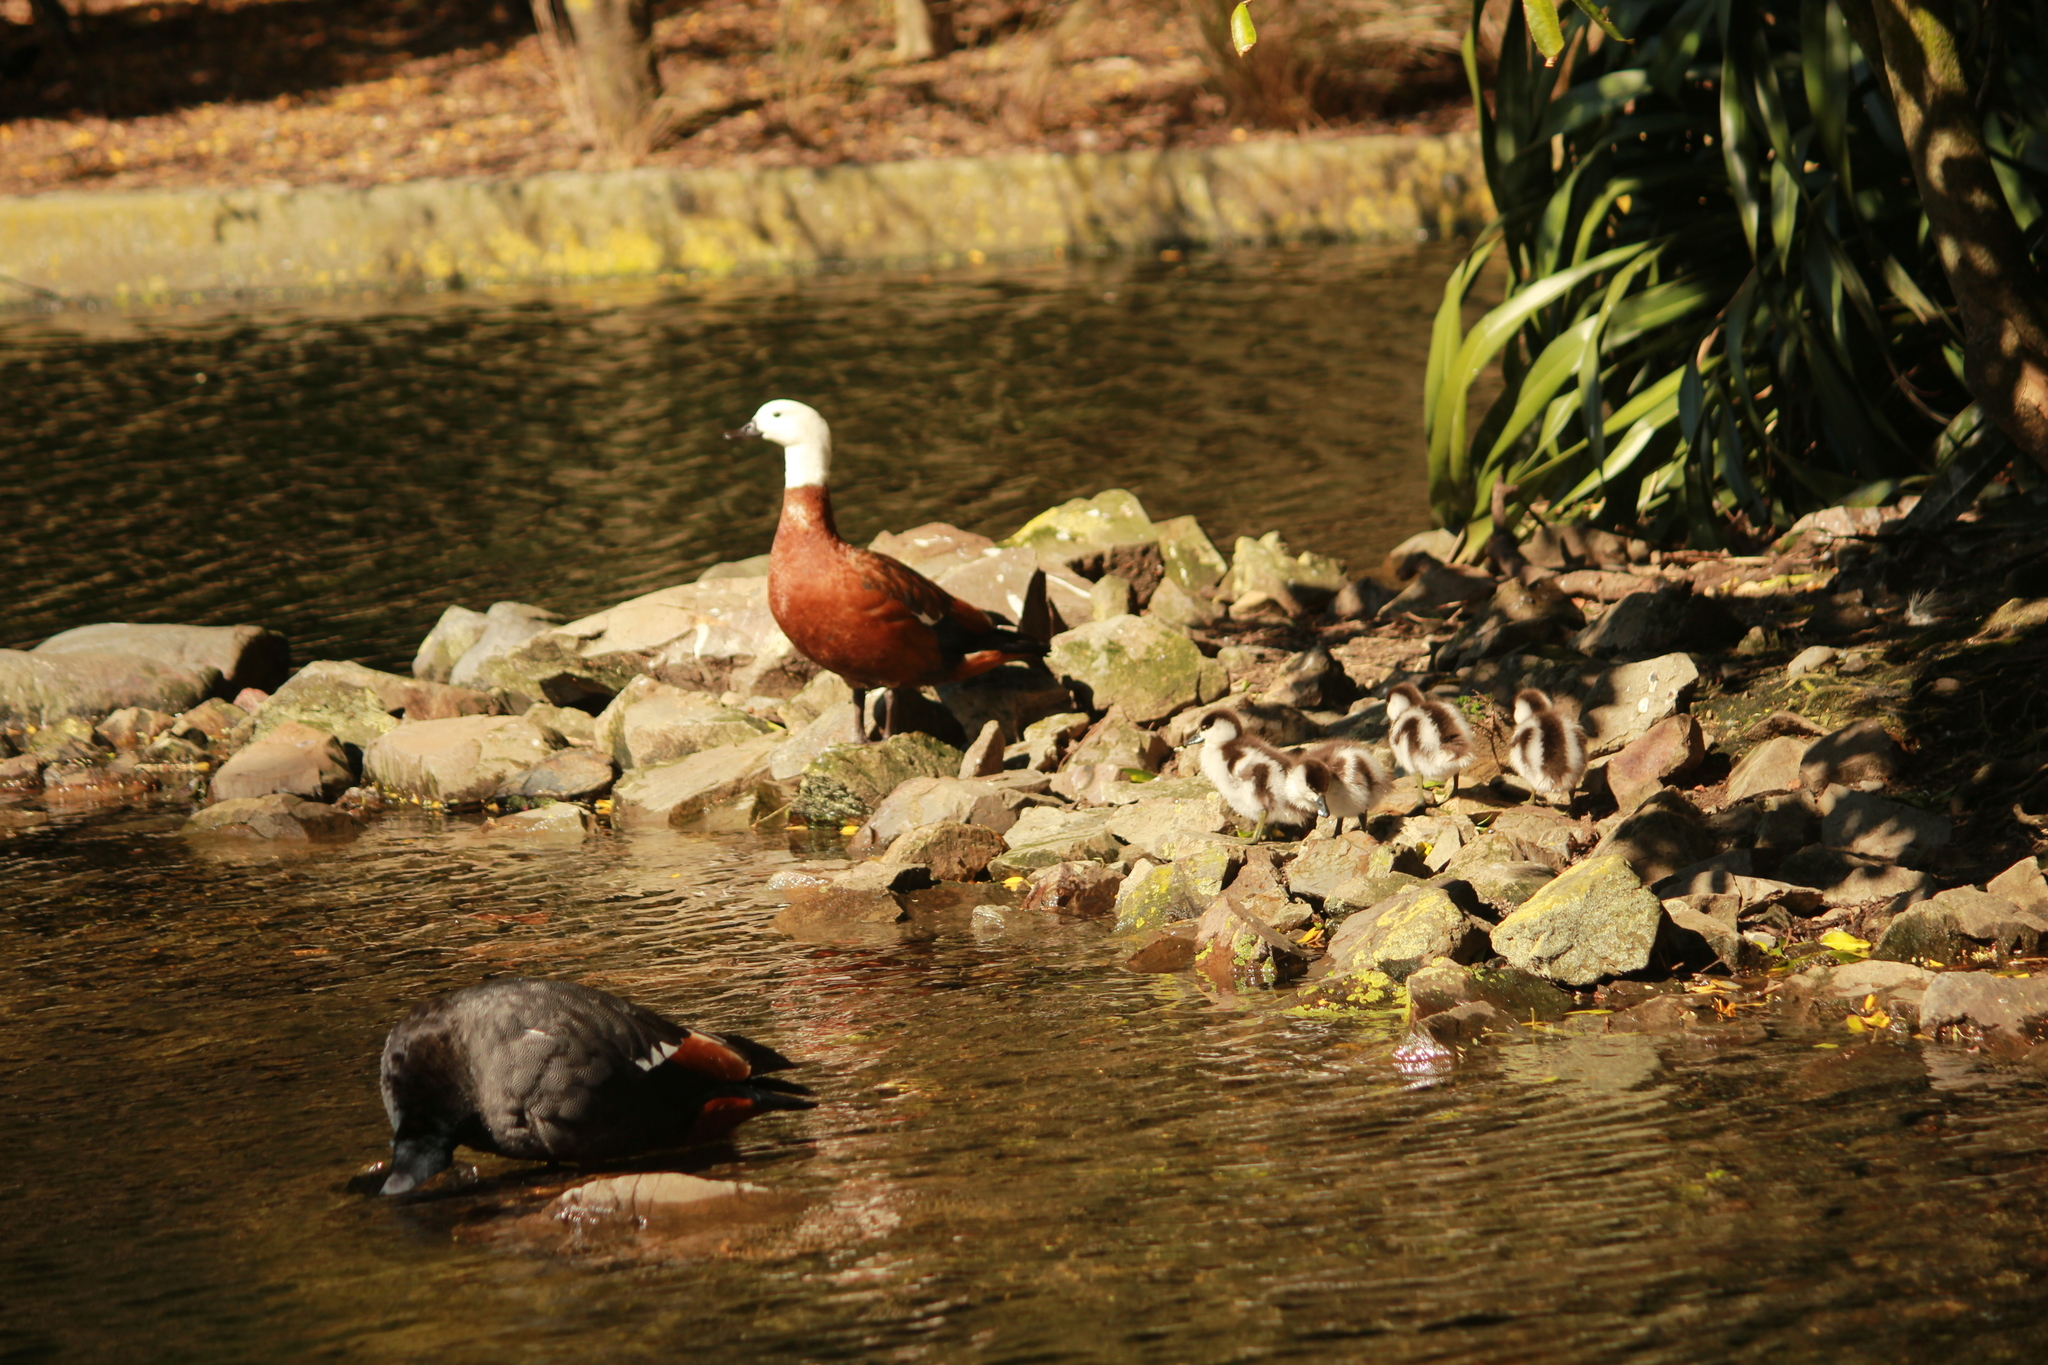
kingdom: Animalia
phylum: Chordata
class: Aves
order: Anseriformes
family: Anatidae
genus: Tadorna
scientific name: Tadorna variegata
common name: Paradise shelduck
